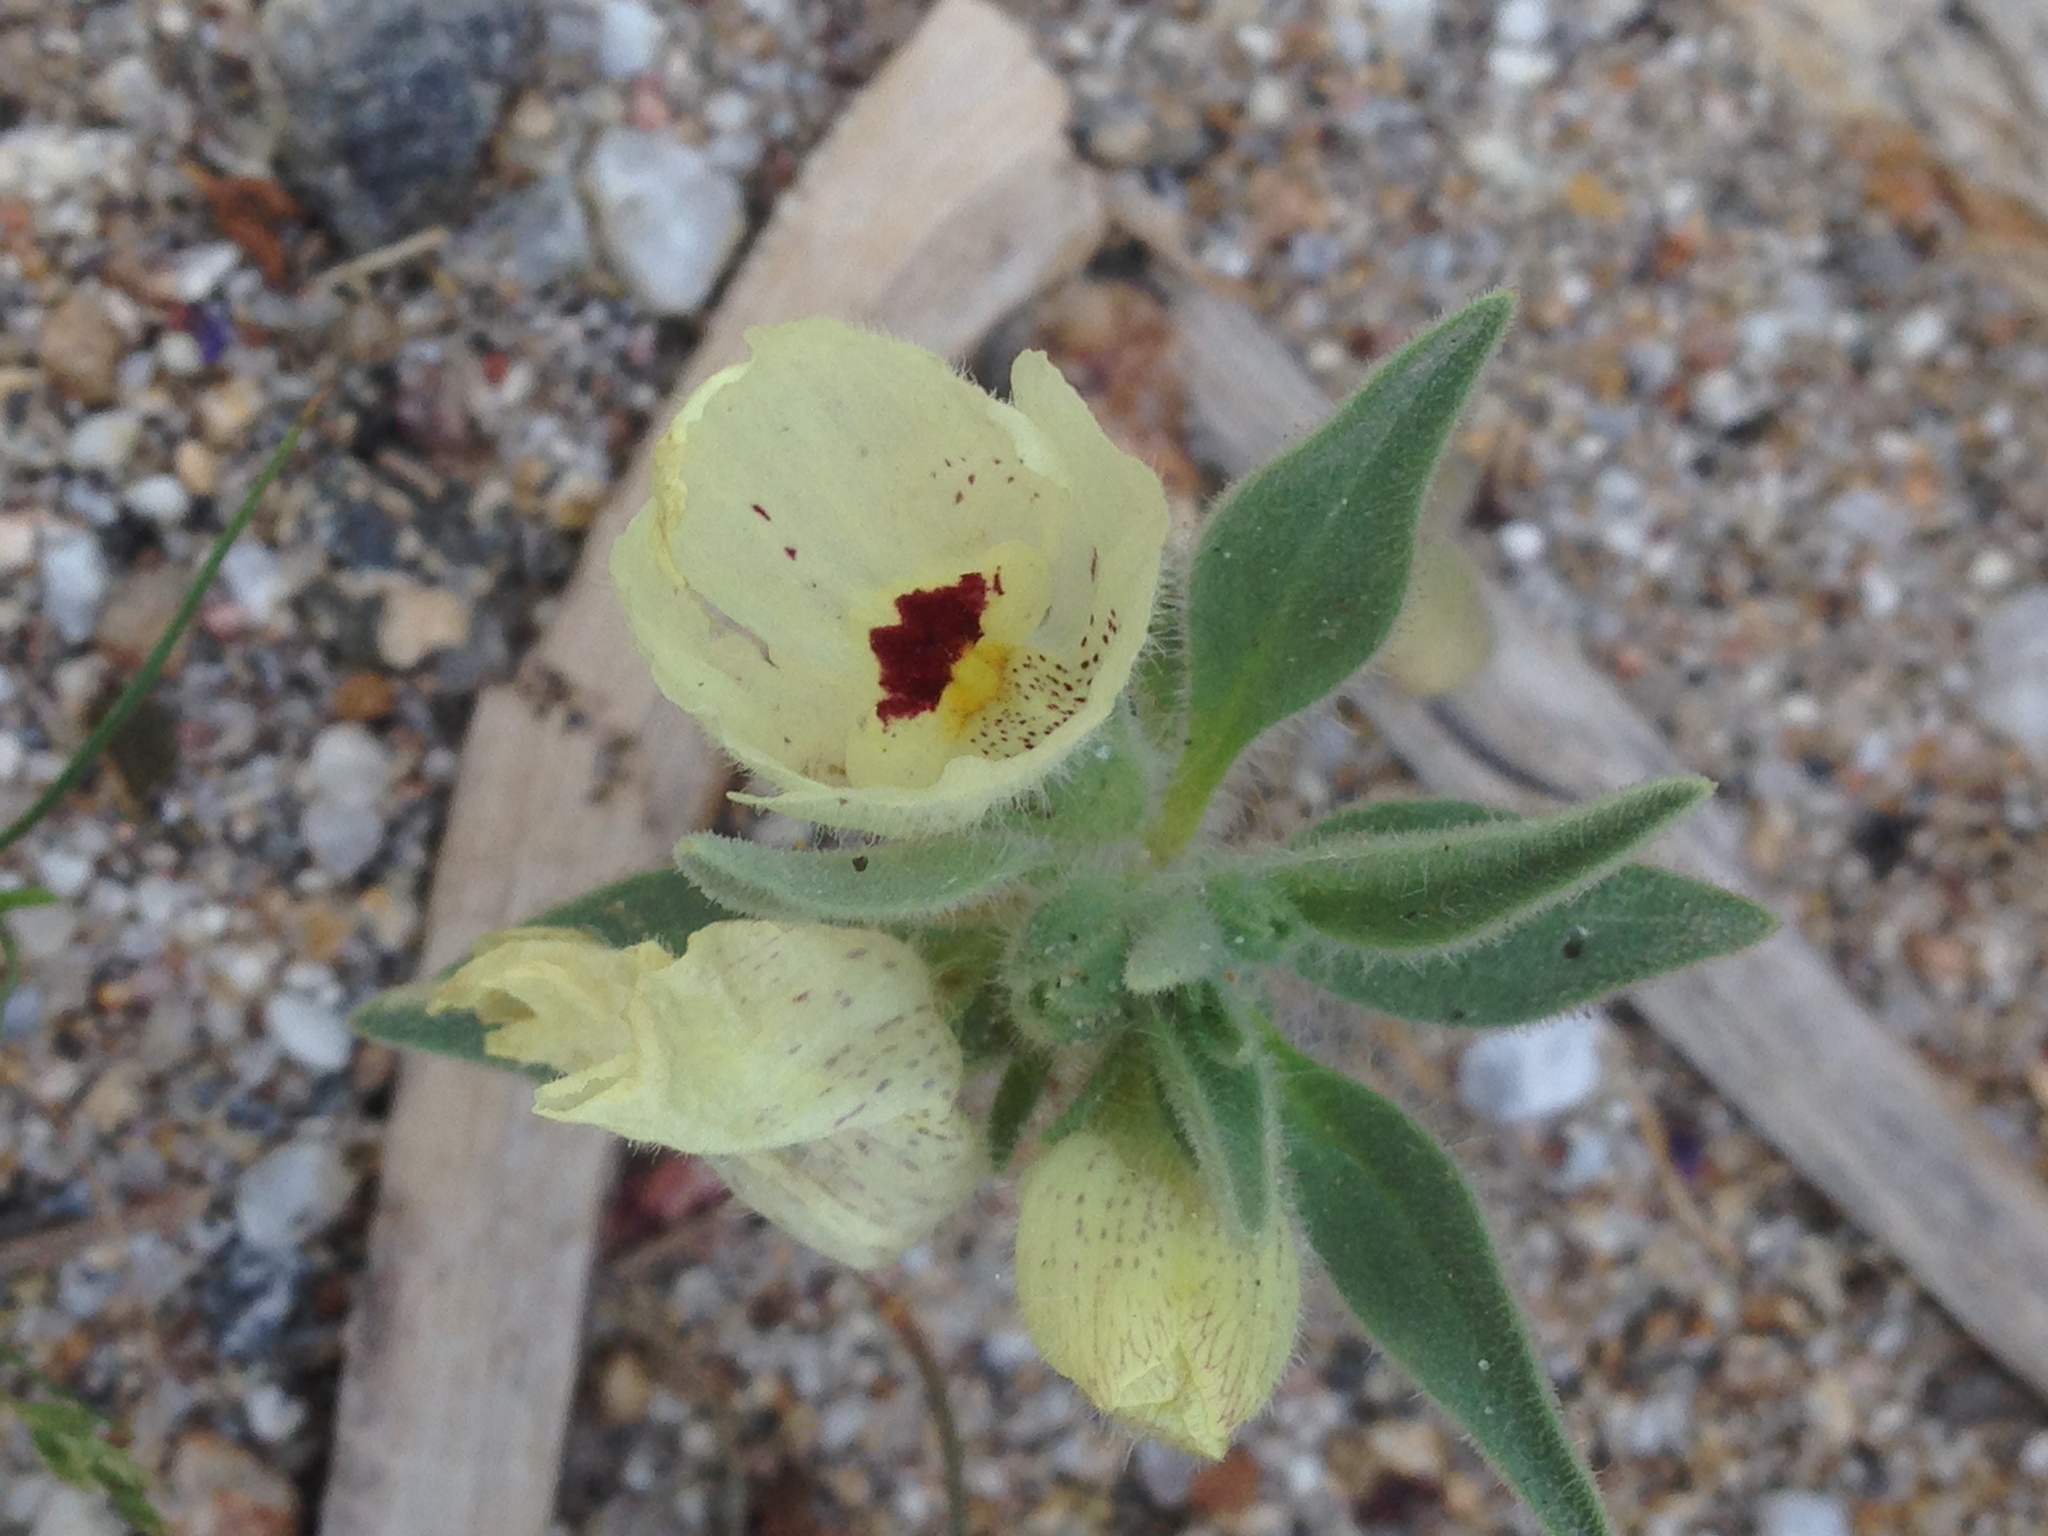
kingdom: Plantae
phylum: Tracheophyta
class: Magnoliopsida
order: Lamiales
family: Plantaginaceae
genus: Mohavea
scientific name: Mohavea confertiflora
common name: Ghost flower
